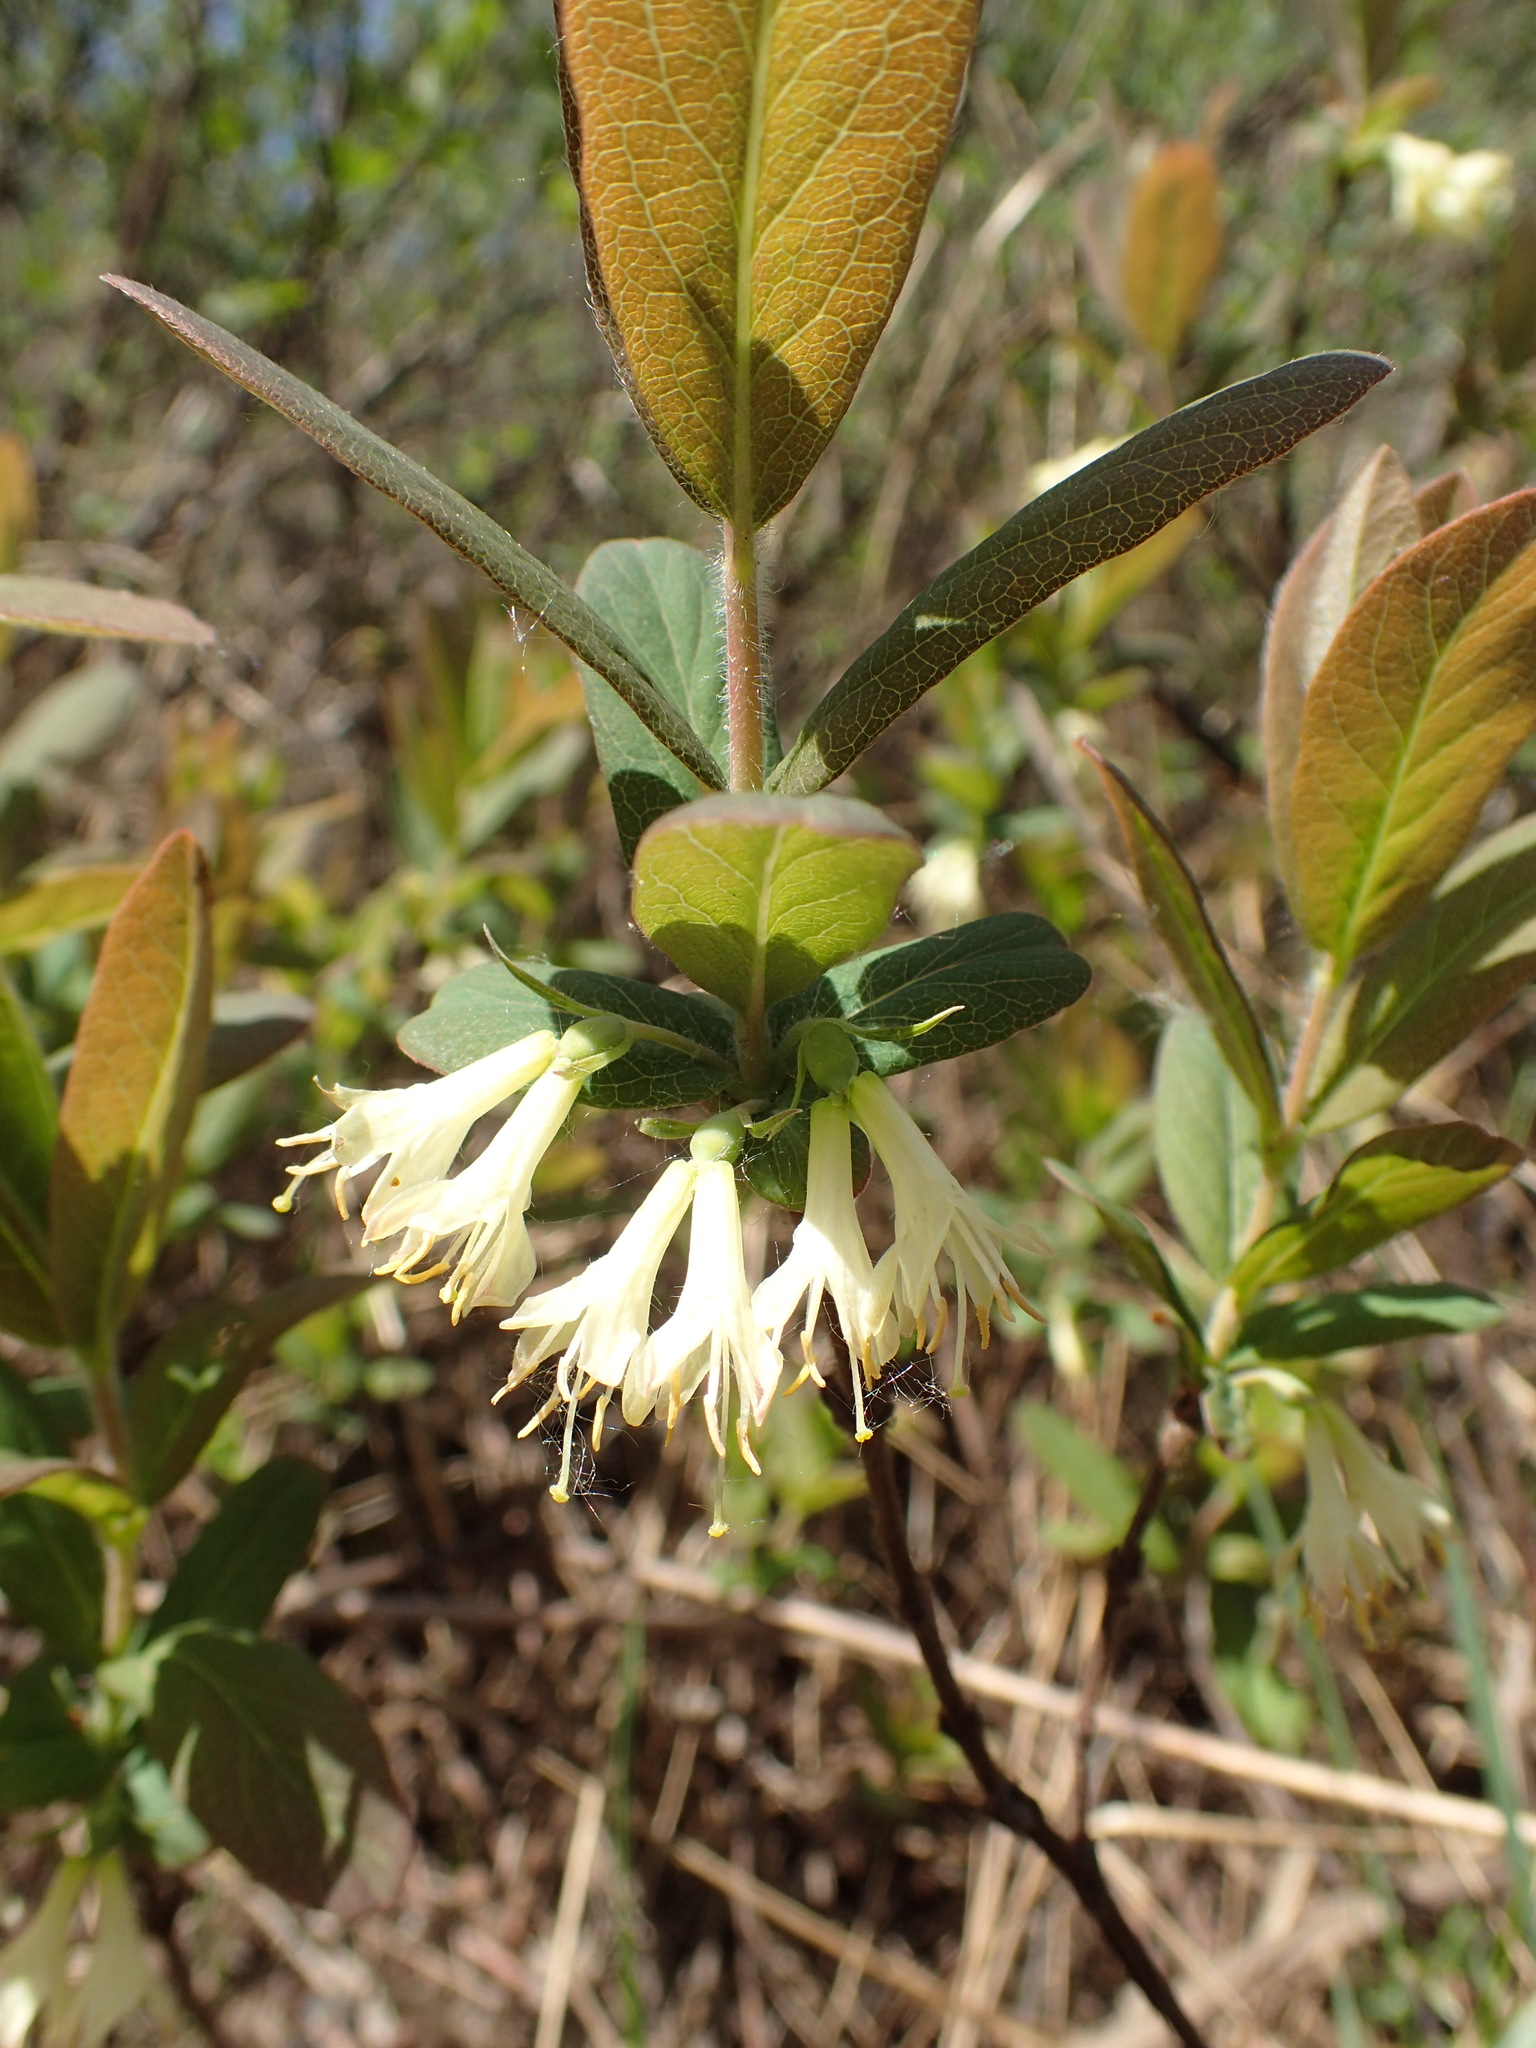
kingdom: Plantae
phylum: Tracheophyta
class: Magnoliopsida
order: Dipsacales
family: Caprifoliaceae
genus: Lonicera
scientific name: Lonicera villosa
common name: Mountain fly-honeysuckle
